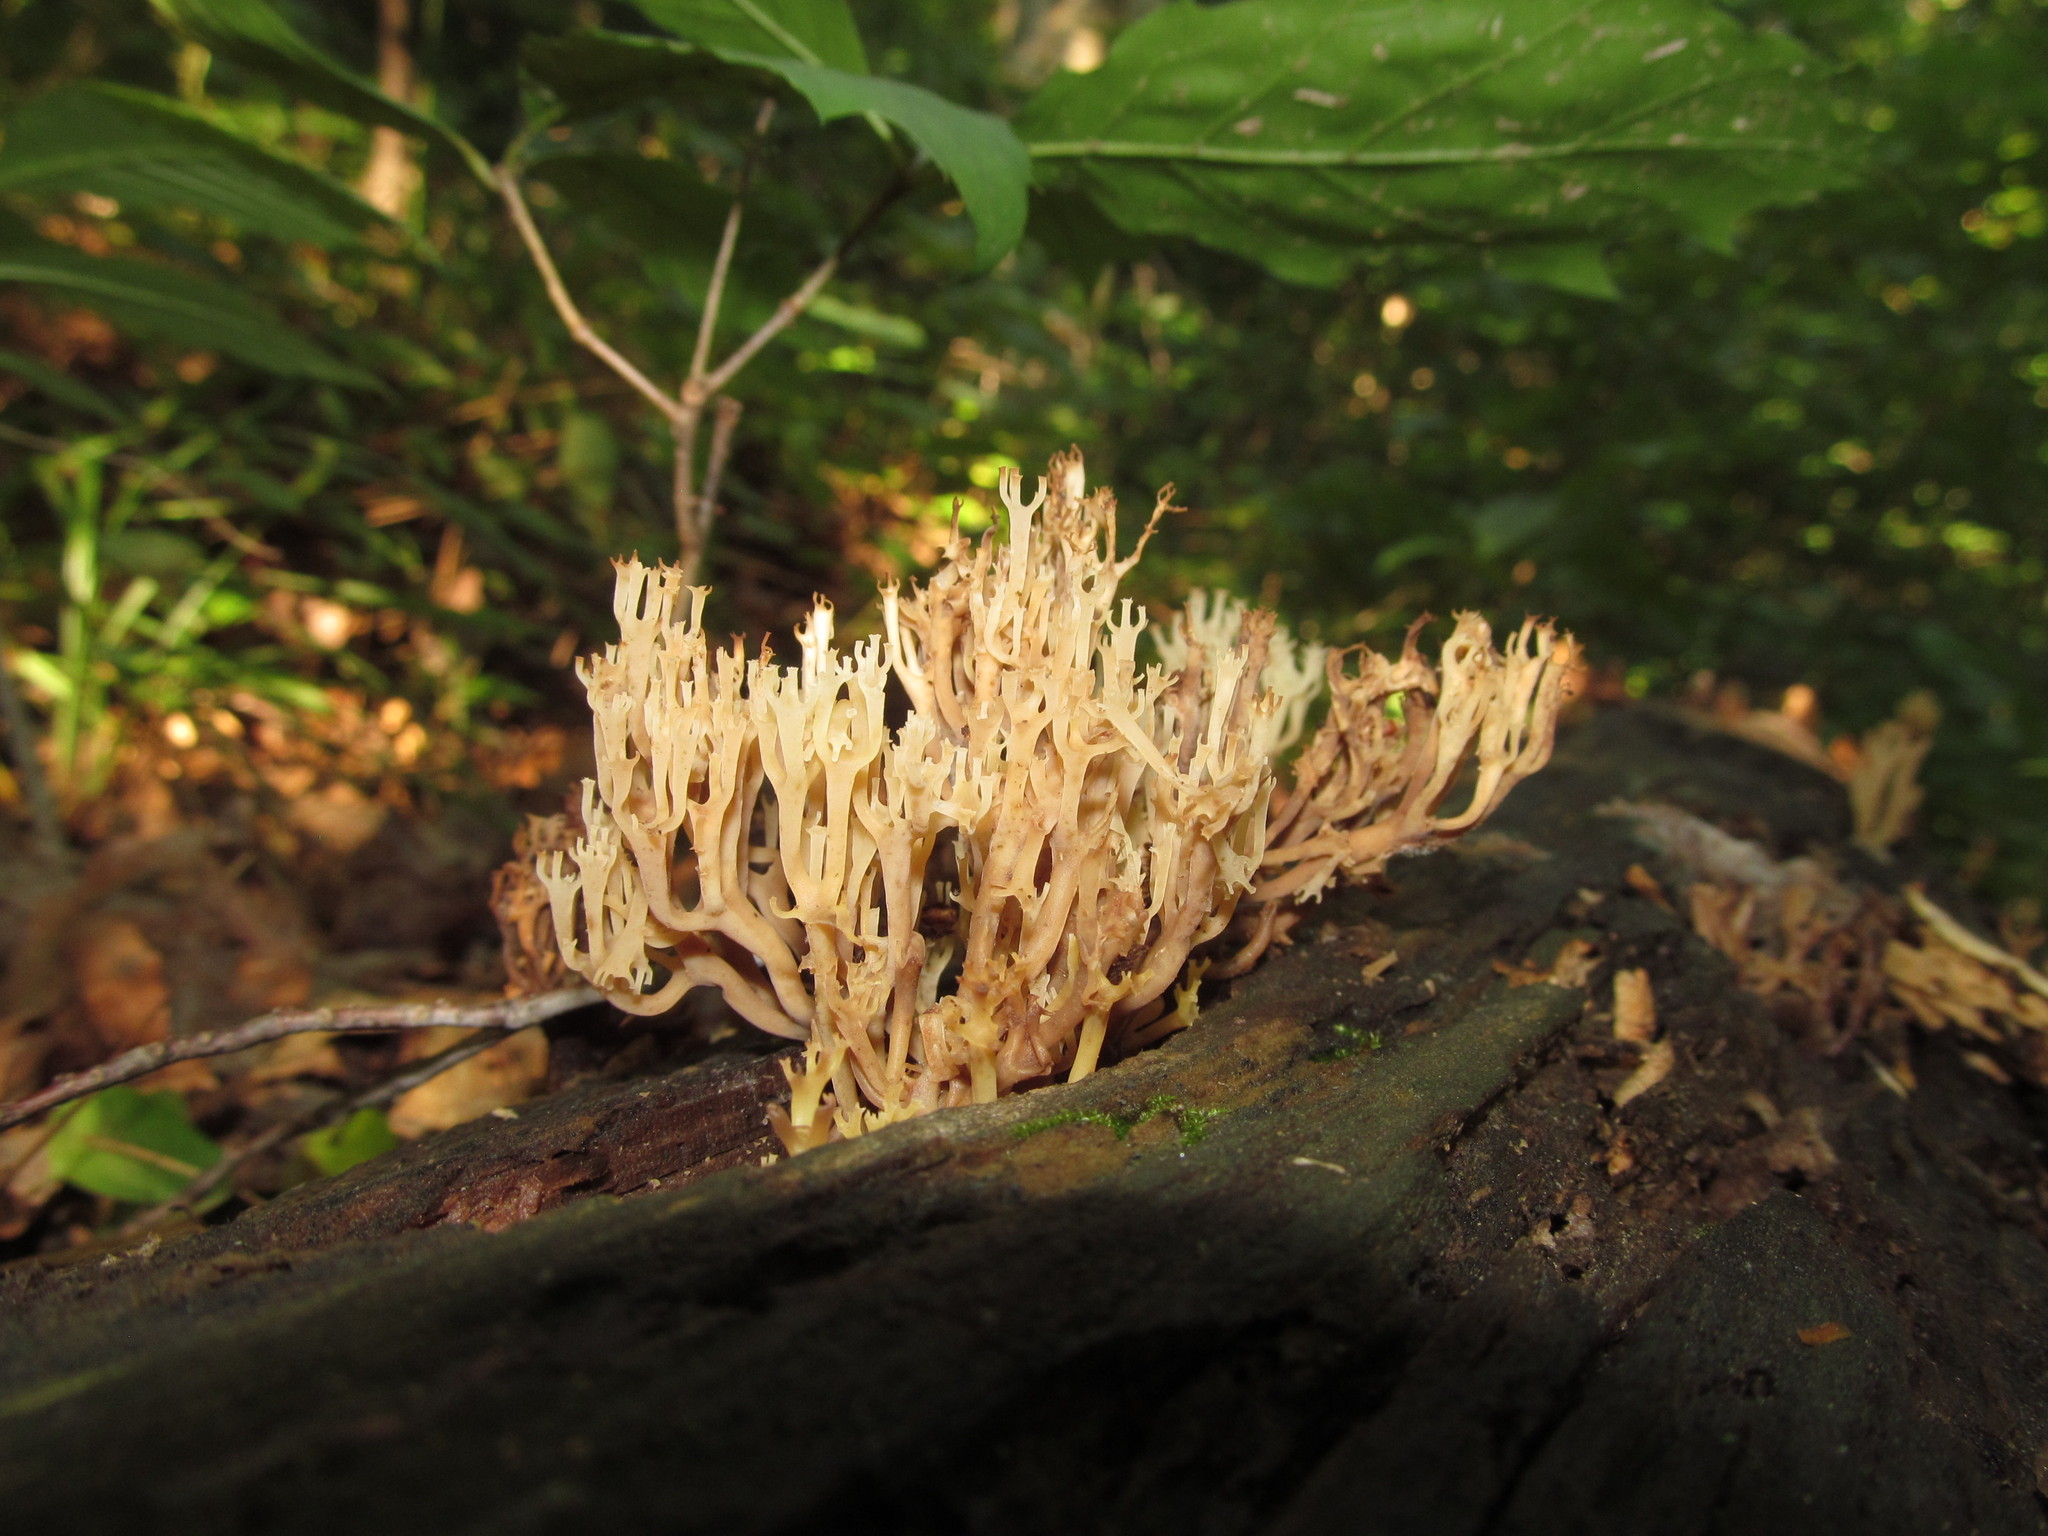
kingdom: Fungi
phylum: Basidiomycota
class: Agaricomycetes
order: Russulales
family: Auriscalpiaceae
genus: Artomyces
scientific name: Artomyces pyxidatus
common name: Crown-tipped coral fungus
